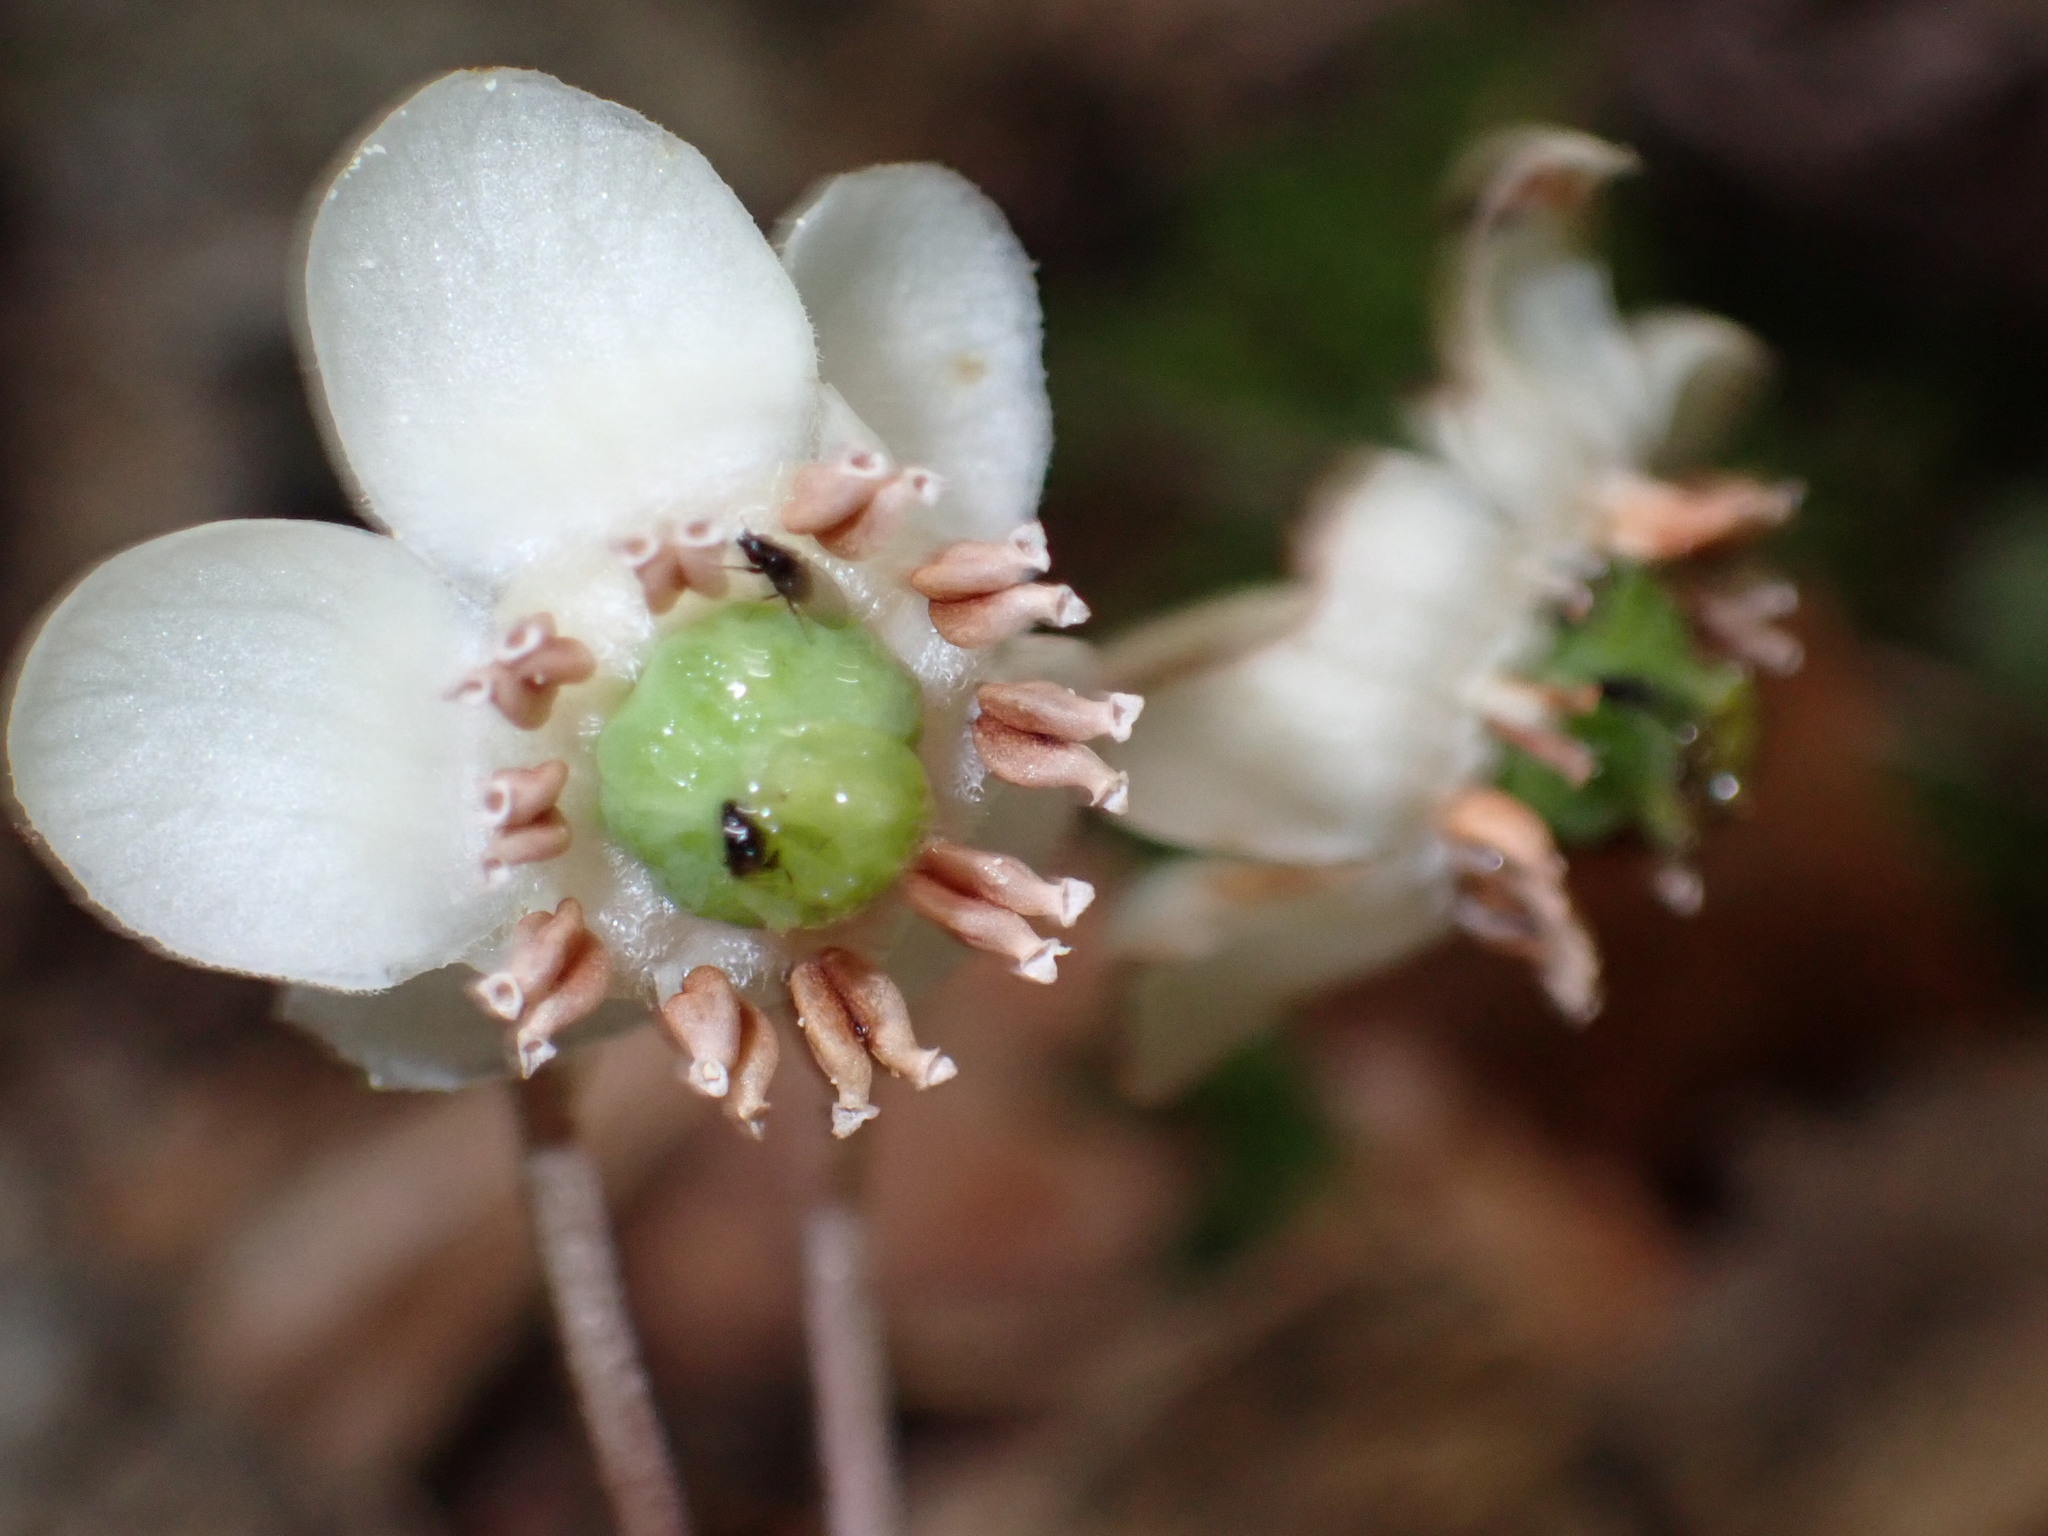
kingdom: Plantae
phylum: Tracheophyta
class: Magnoliopsida
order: Ericales
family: Ericaceae
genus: Chimaphila
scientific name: Chimaphila maculata
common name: Spotted pipsissewa
